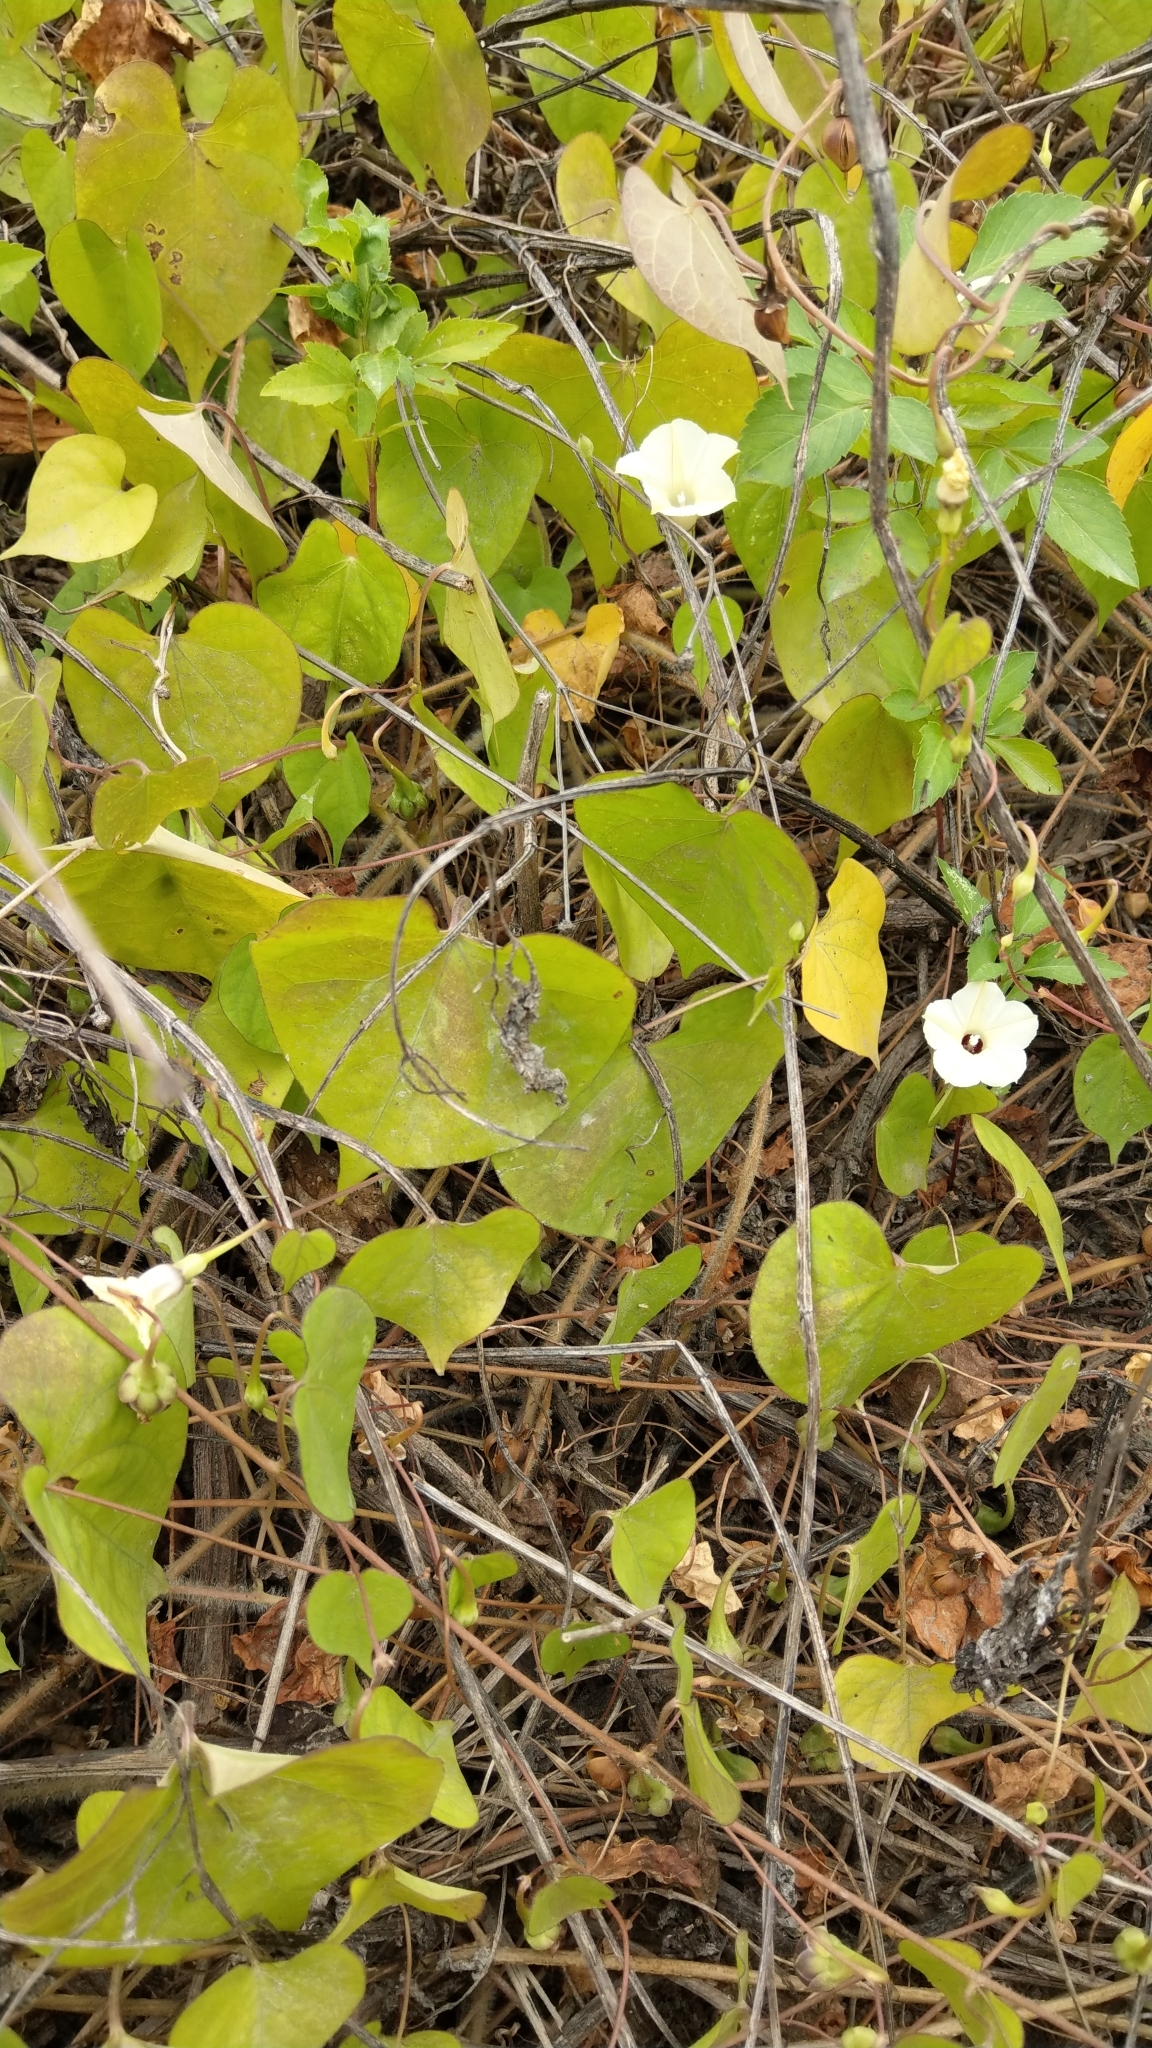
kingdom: Plantae
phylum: Tracheophyta
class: Magnoliopsida
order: Solanales
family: Convolvulaceae
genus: Ipomoea
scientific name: Ipomoea obscura
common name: Obscure morning-glory
